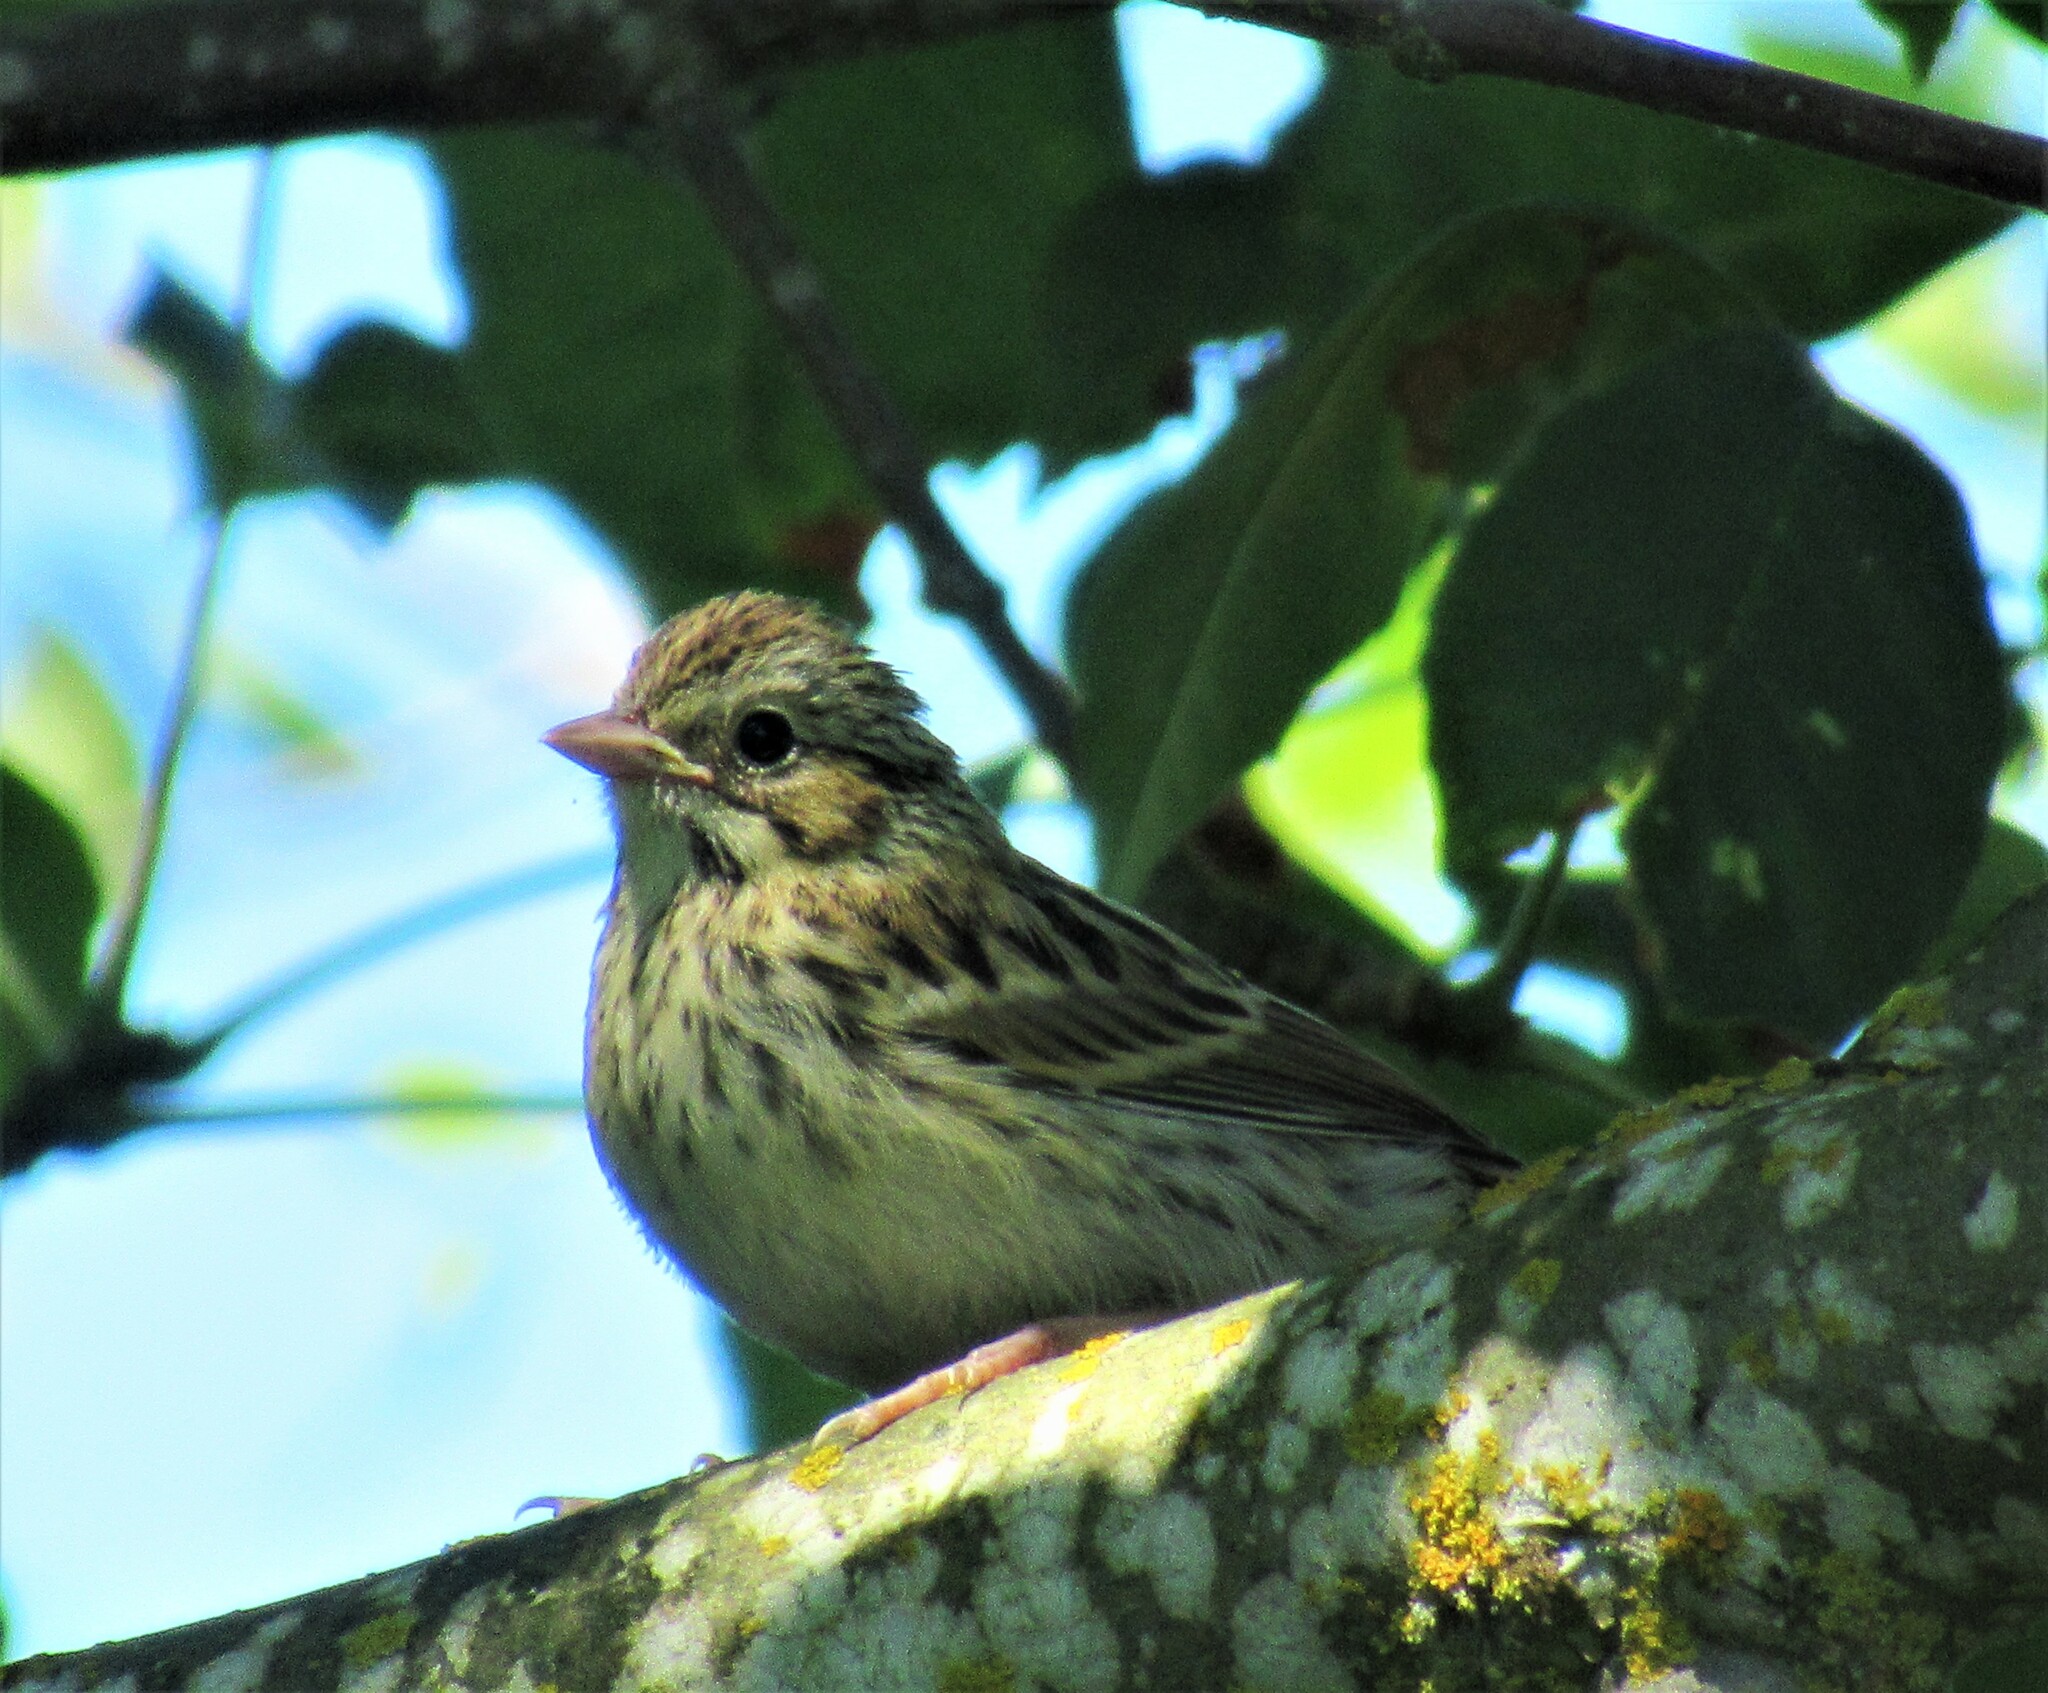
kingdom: Animalia
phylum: Chordata
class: Aves
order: Passeriformes
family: Passerellidae
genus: Melospiza
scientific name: Melospiza lincolnii
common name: Lincoln's sparrow
